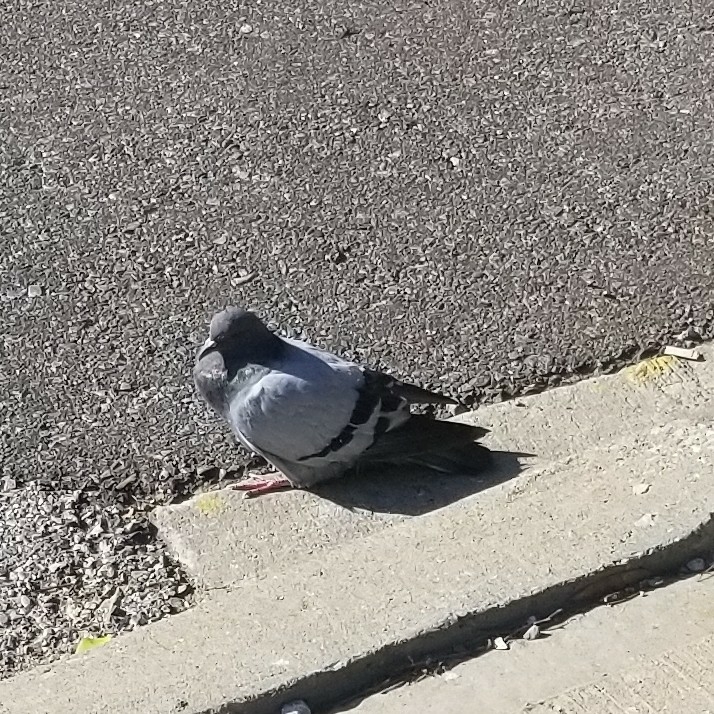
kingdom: Animalia
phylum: Chordata
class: Aves
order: Columbiformes
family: Columbidae
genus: Columba
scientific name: Columba livia
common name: Rock pigeon
